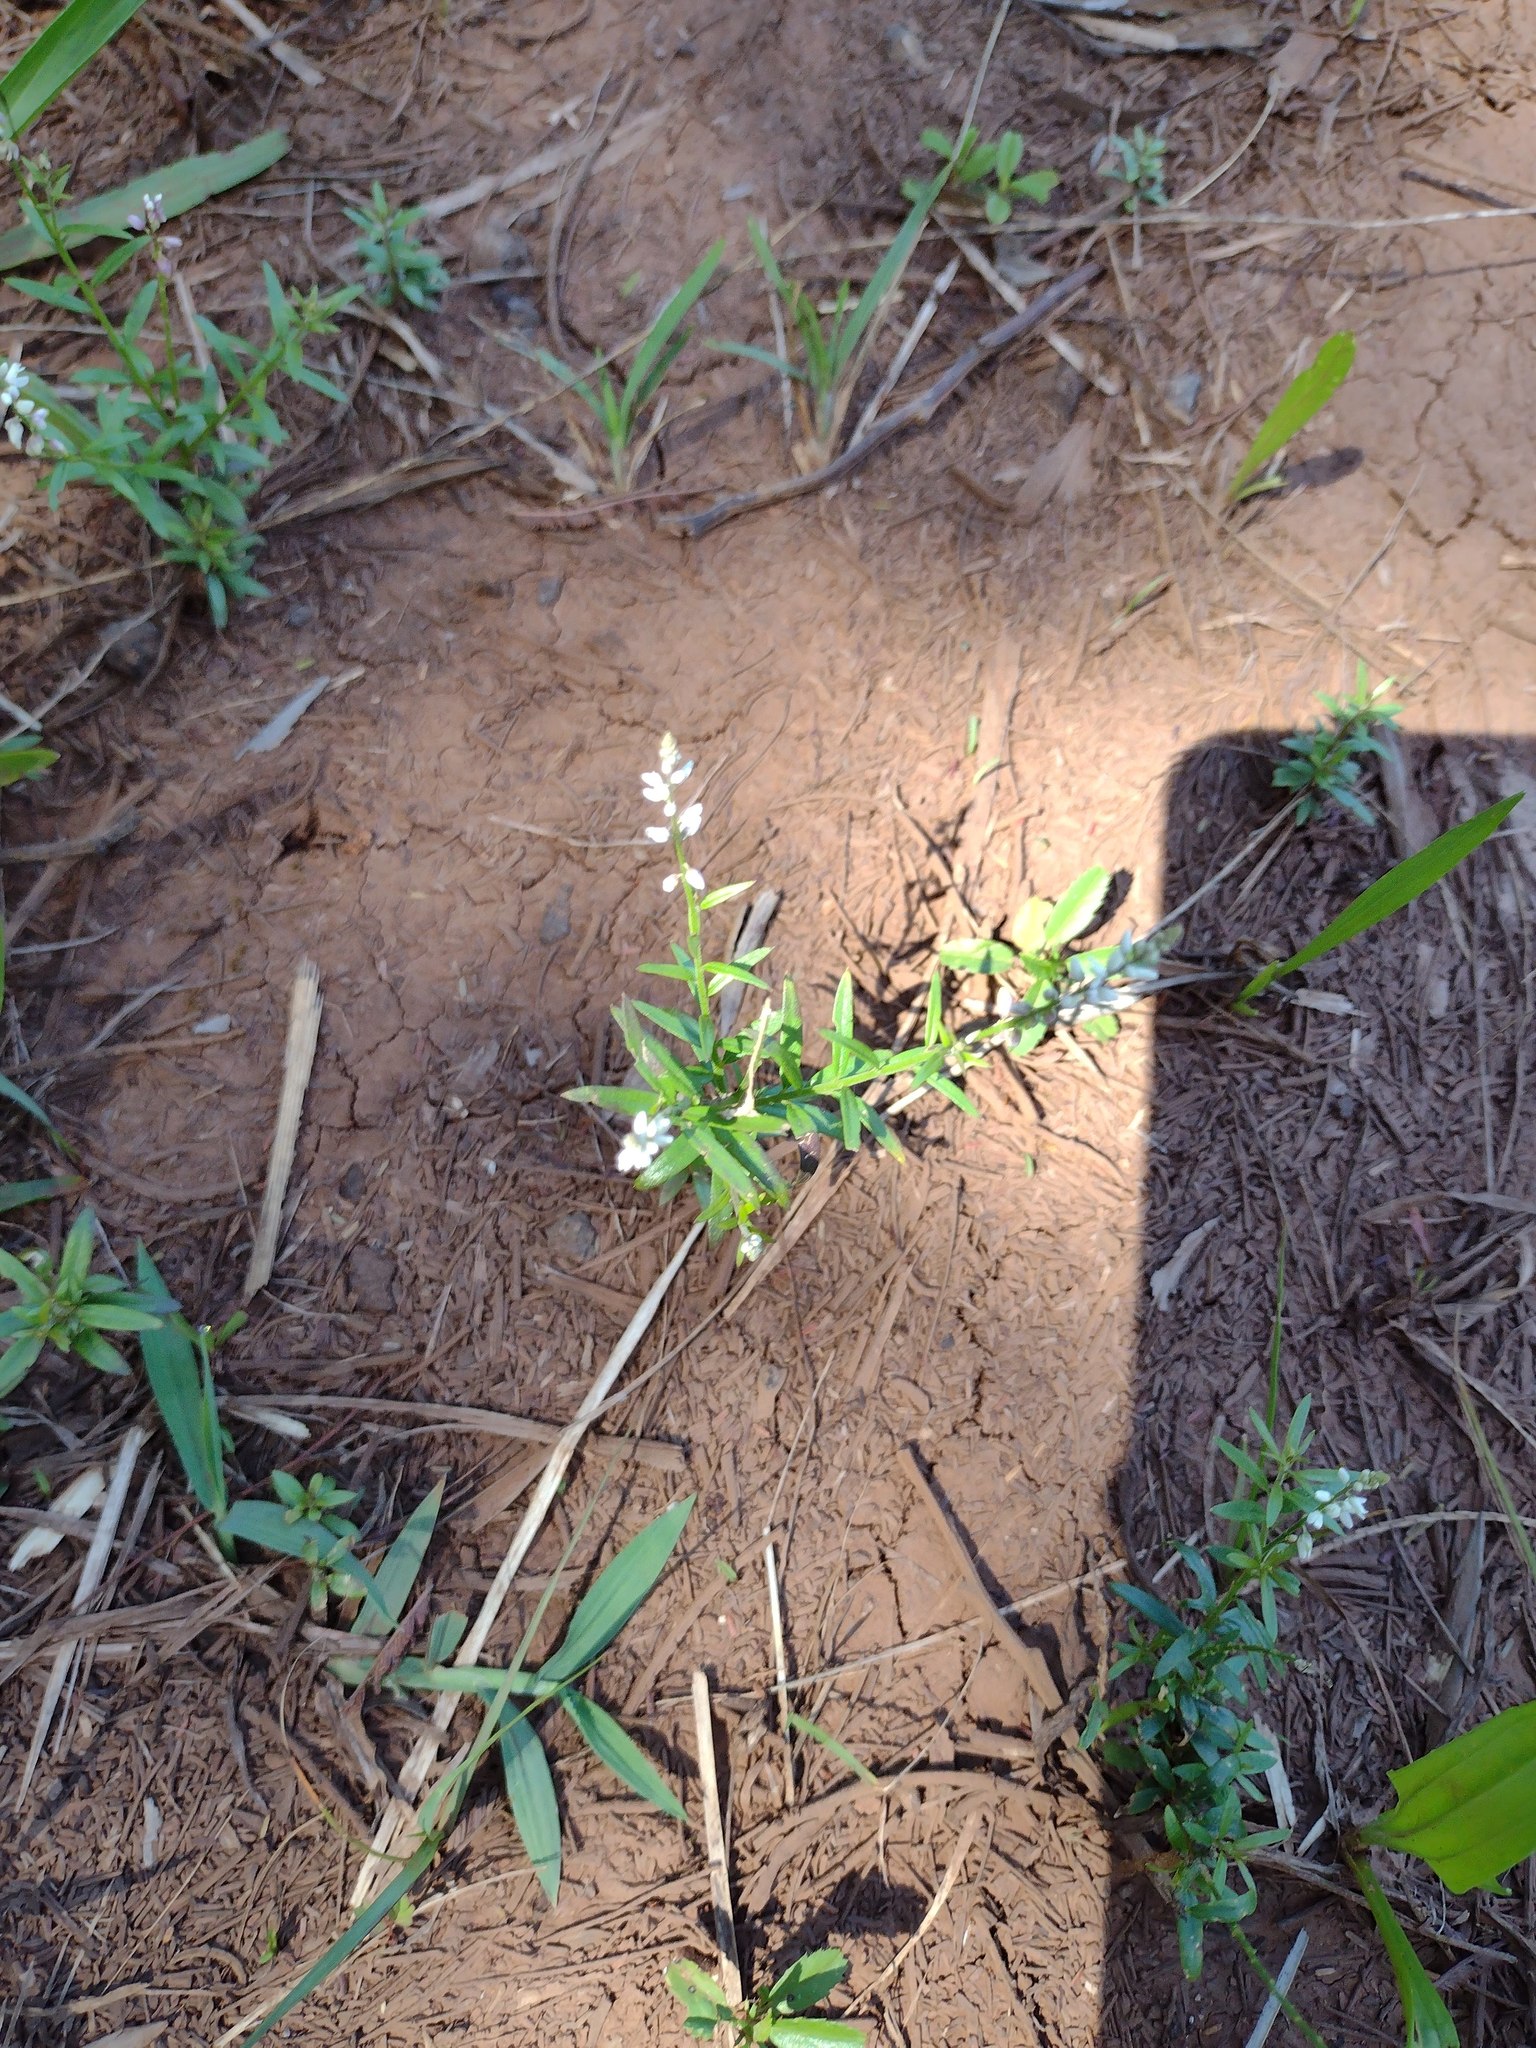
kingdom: Plantae
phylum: Tracheophyta
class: Magnoliopsida
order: Fabales
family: Polygalaceae
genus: Polygala
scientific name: Polygala paniculata
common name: Orosne
